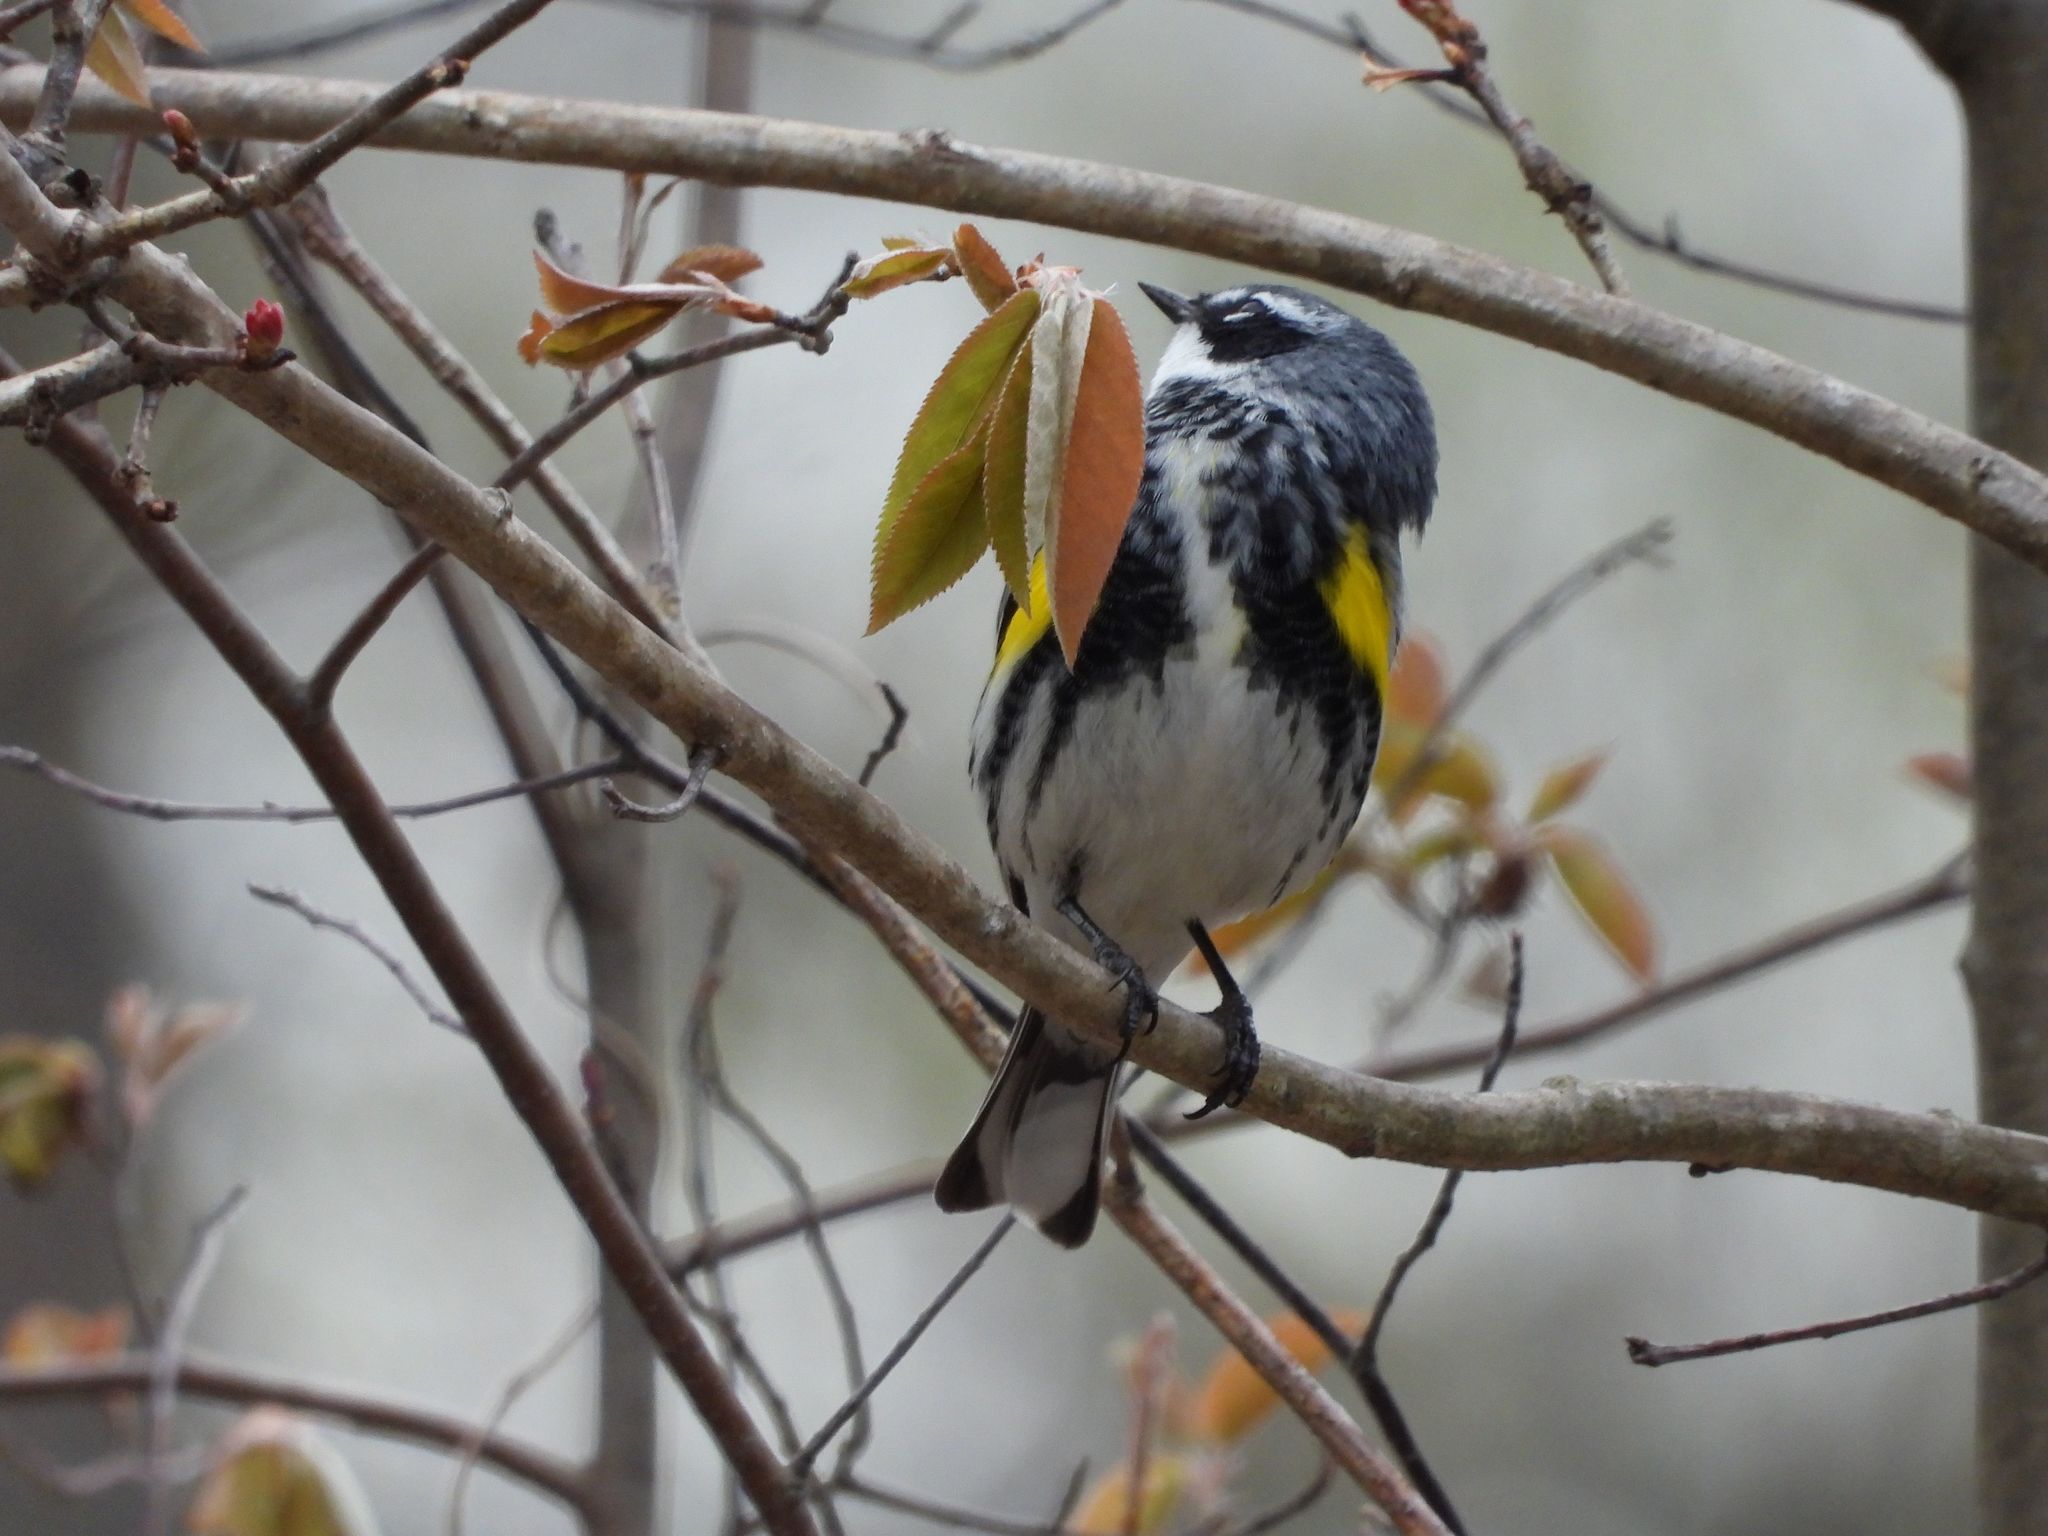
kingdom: Animalia
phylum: Chordata
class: Aves
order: Passeriformes
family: Parulidae
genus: Setophaga
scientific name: Setophaga coronata
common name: Myrtle warbler
